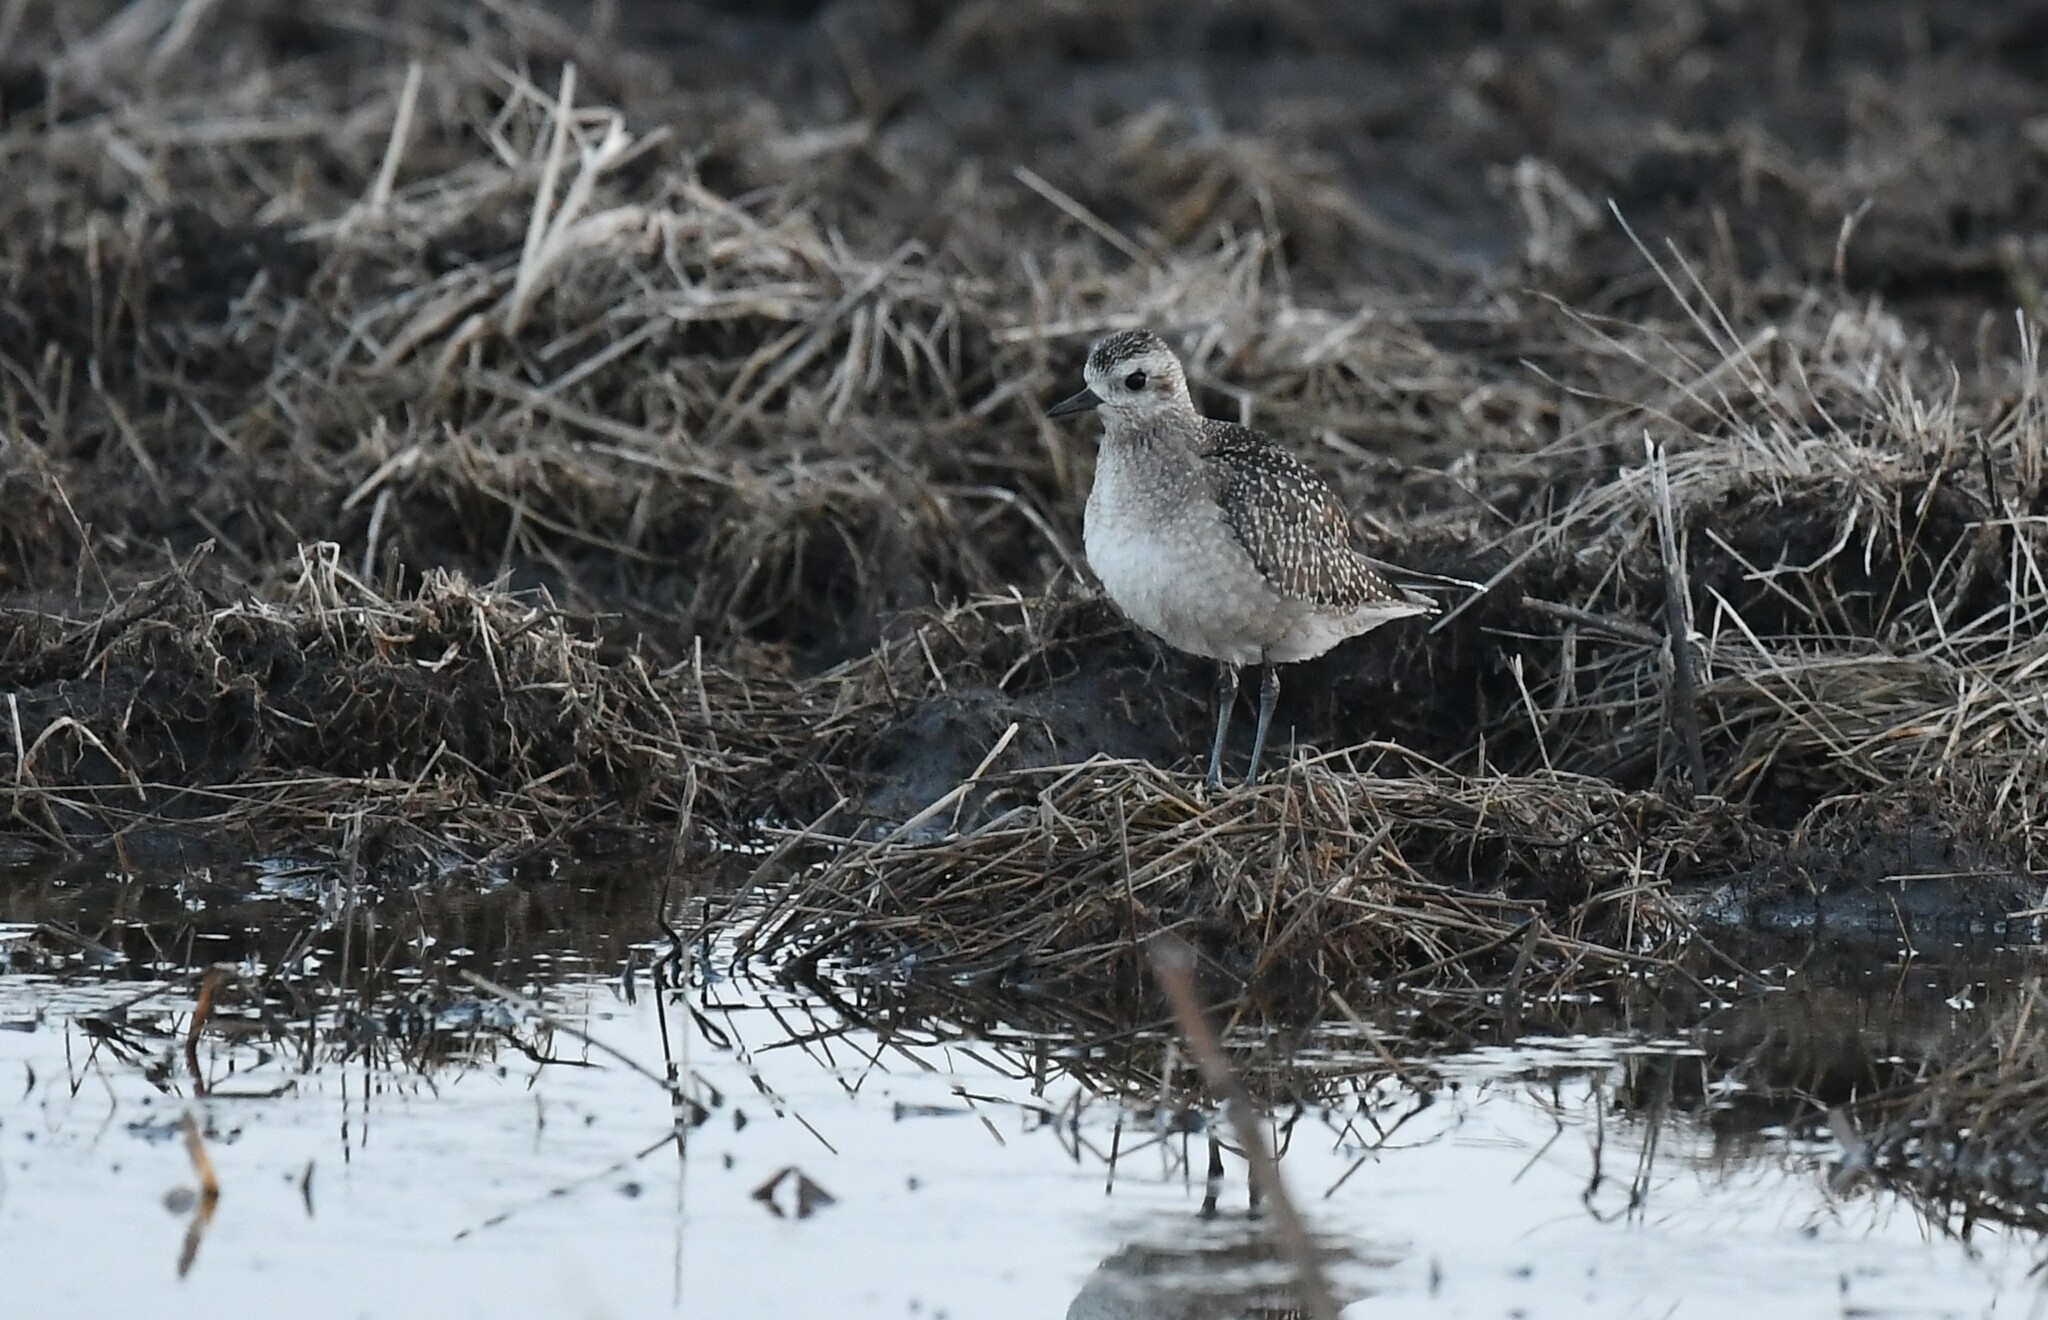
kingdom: Animalia
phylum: Chordata
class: Aves
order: Charadriiformes
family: Charadriidae
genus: Pluvialis
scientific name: Pluvialis dominica
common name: American golden plover
